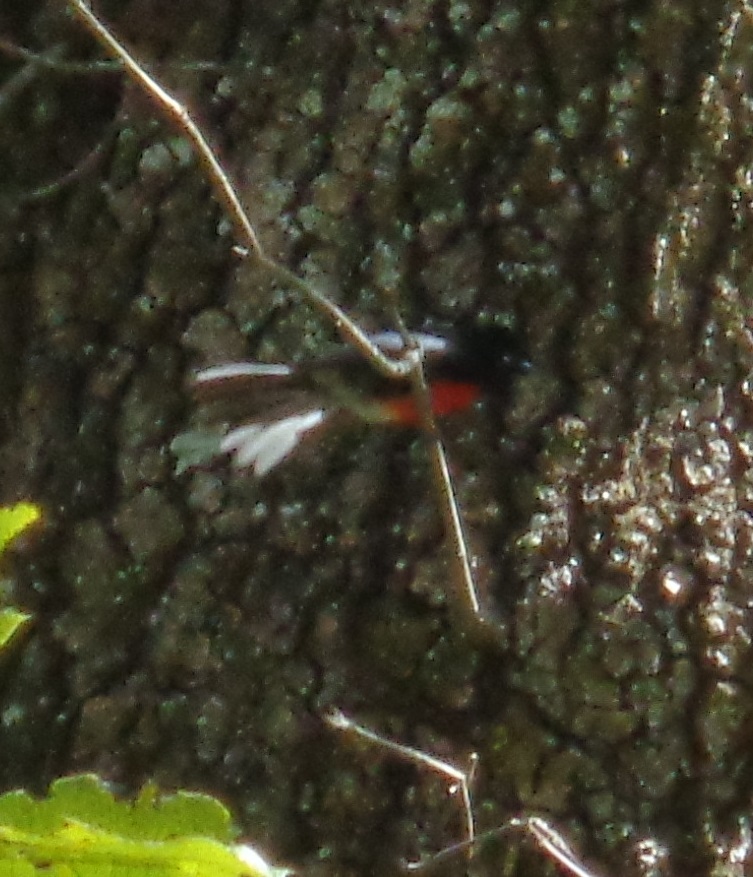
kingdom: Animalia
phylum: Chordata
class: Aves
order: Passeriformes
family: Parulidae
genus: Myioborus
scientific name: Myioborus pictus
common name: Painted whitestart
